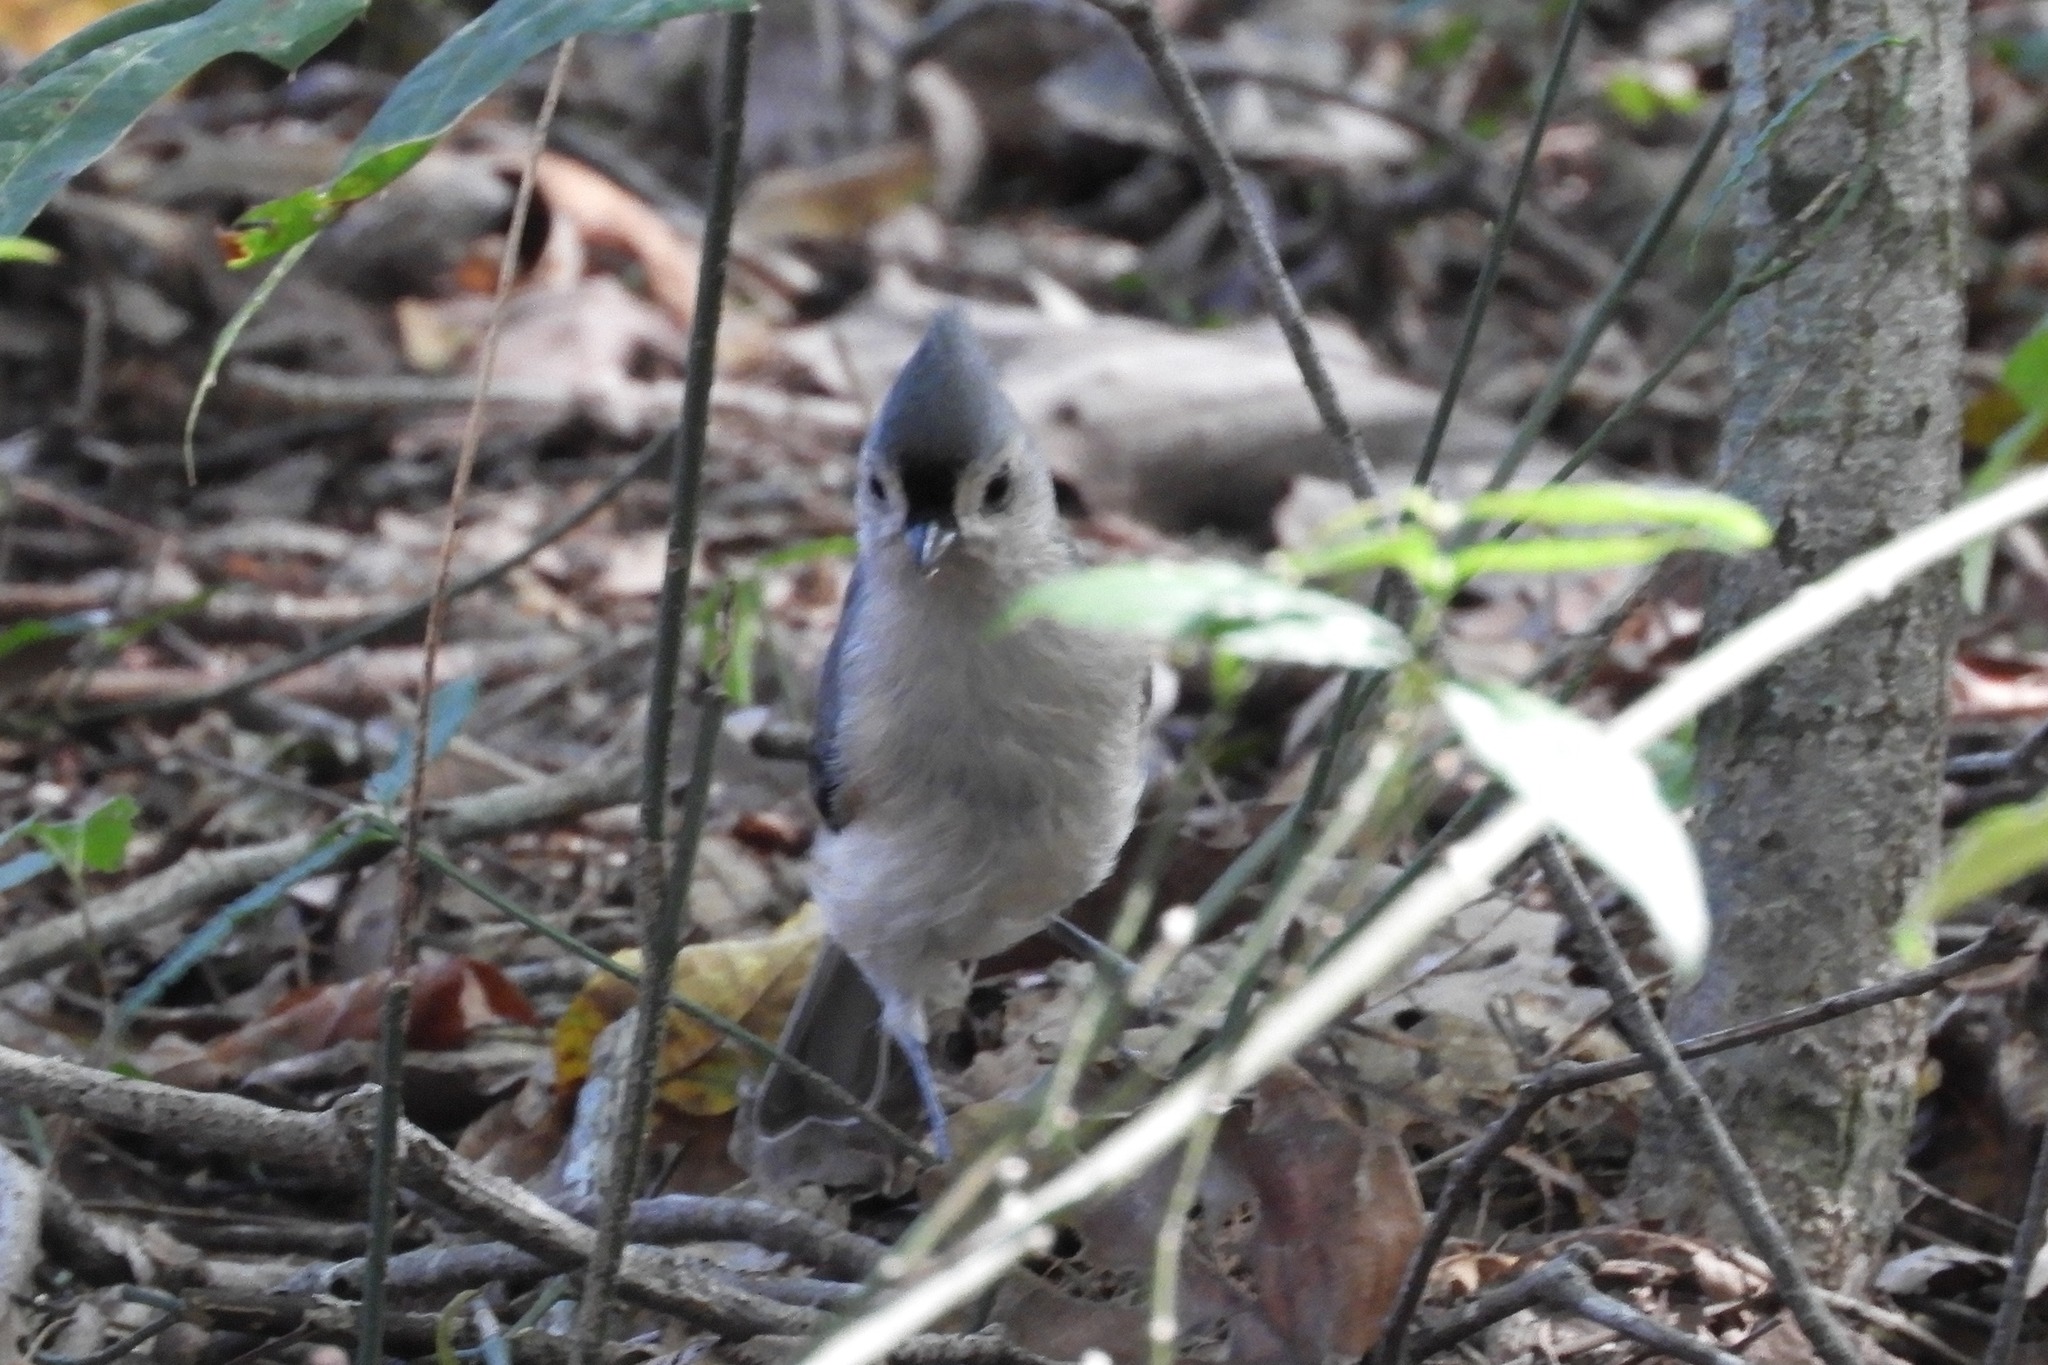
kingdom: Animalia
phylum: Chordata
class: Aves
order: Passeriformes
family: Paridae
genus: Baeolophus
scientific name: Baeolophus bicolor
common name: Tufted titmouse
